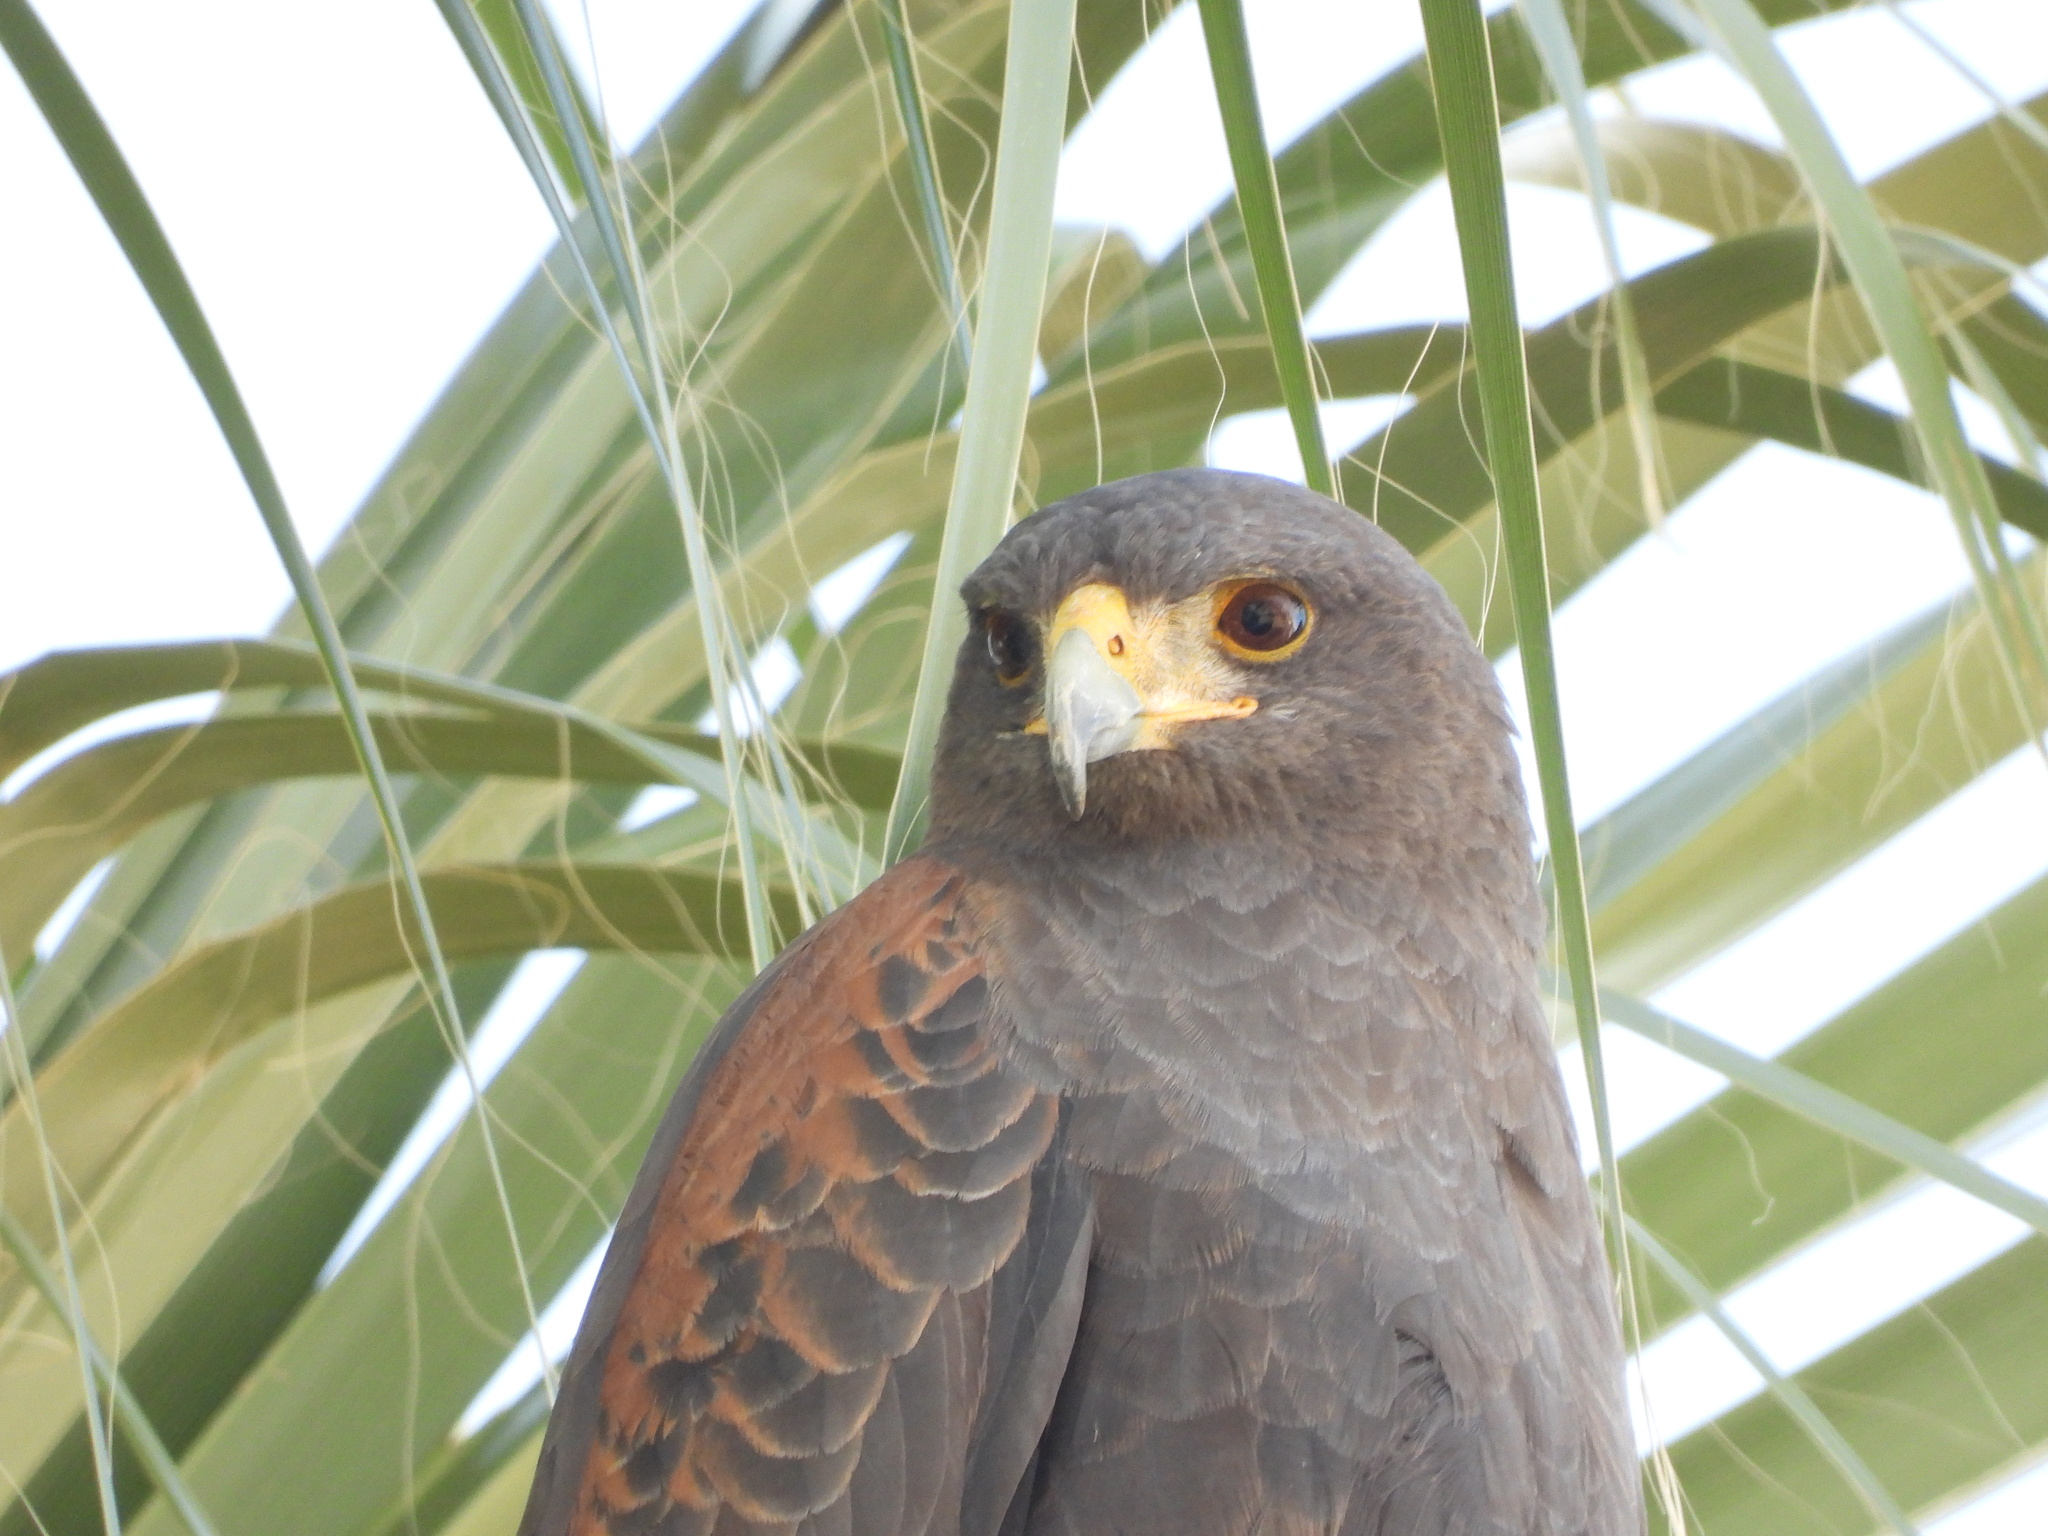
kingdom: Animalia
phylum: Chordata
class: Aves
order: Accipitriformes
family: Accipitridae
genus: Parabuteo
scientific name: Parabuteo unicinctus
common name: Harris's hawk
